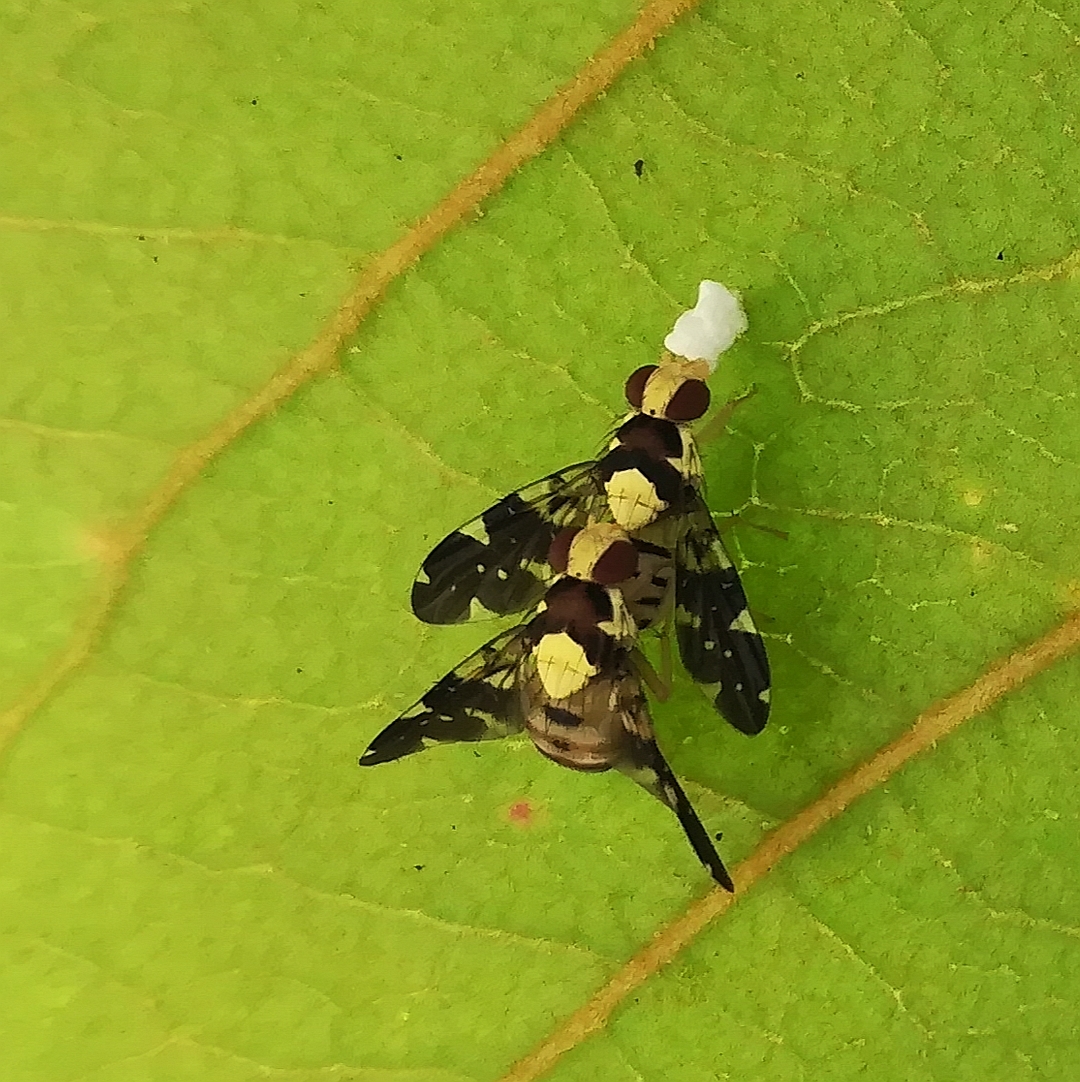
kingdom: Animalia
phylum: Arthropoda
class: Insecta
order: Diptera
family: Tephritidae
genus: Diarrhegma
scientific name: Diarrhegma modestum
